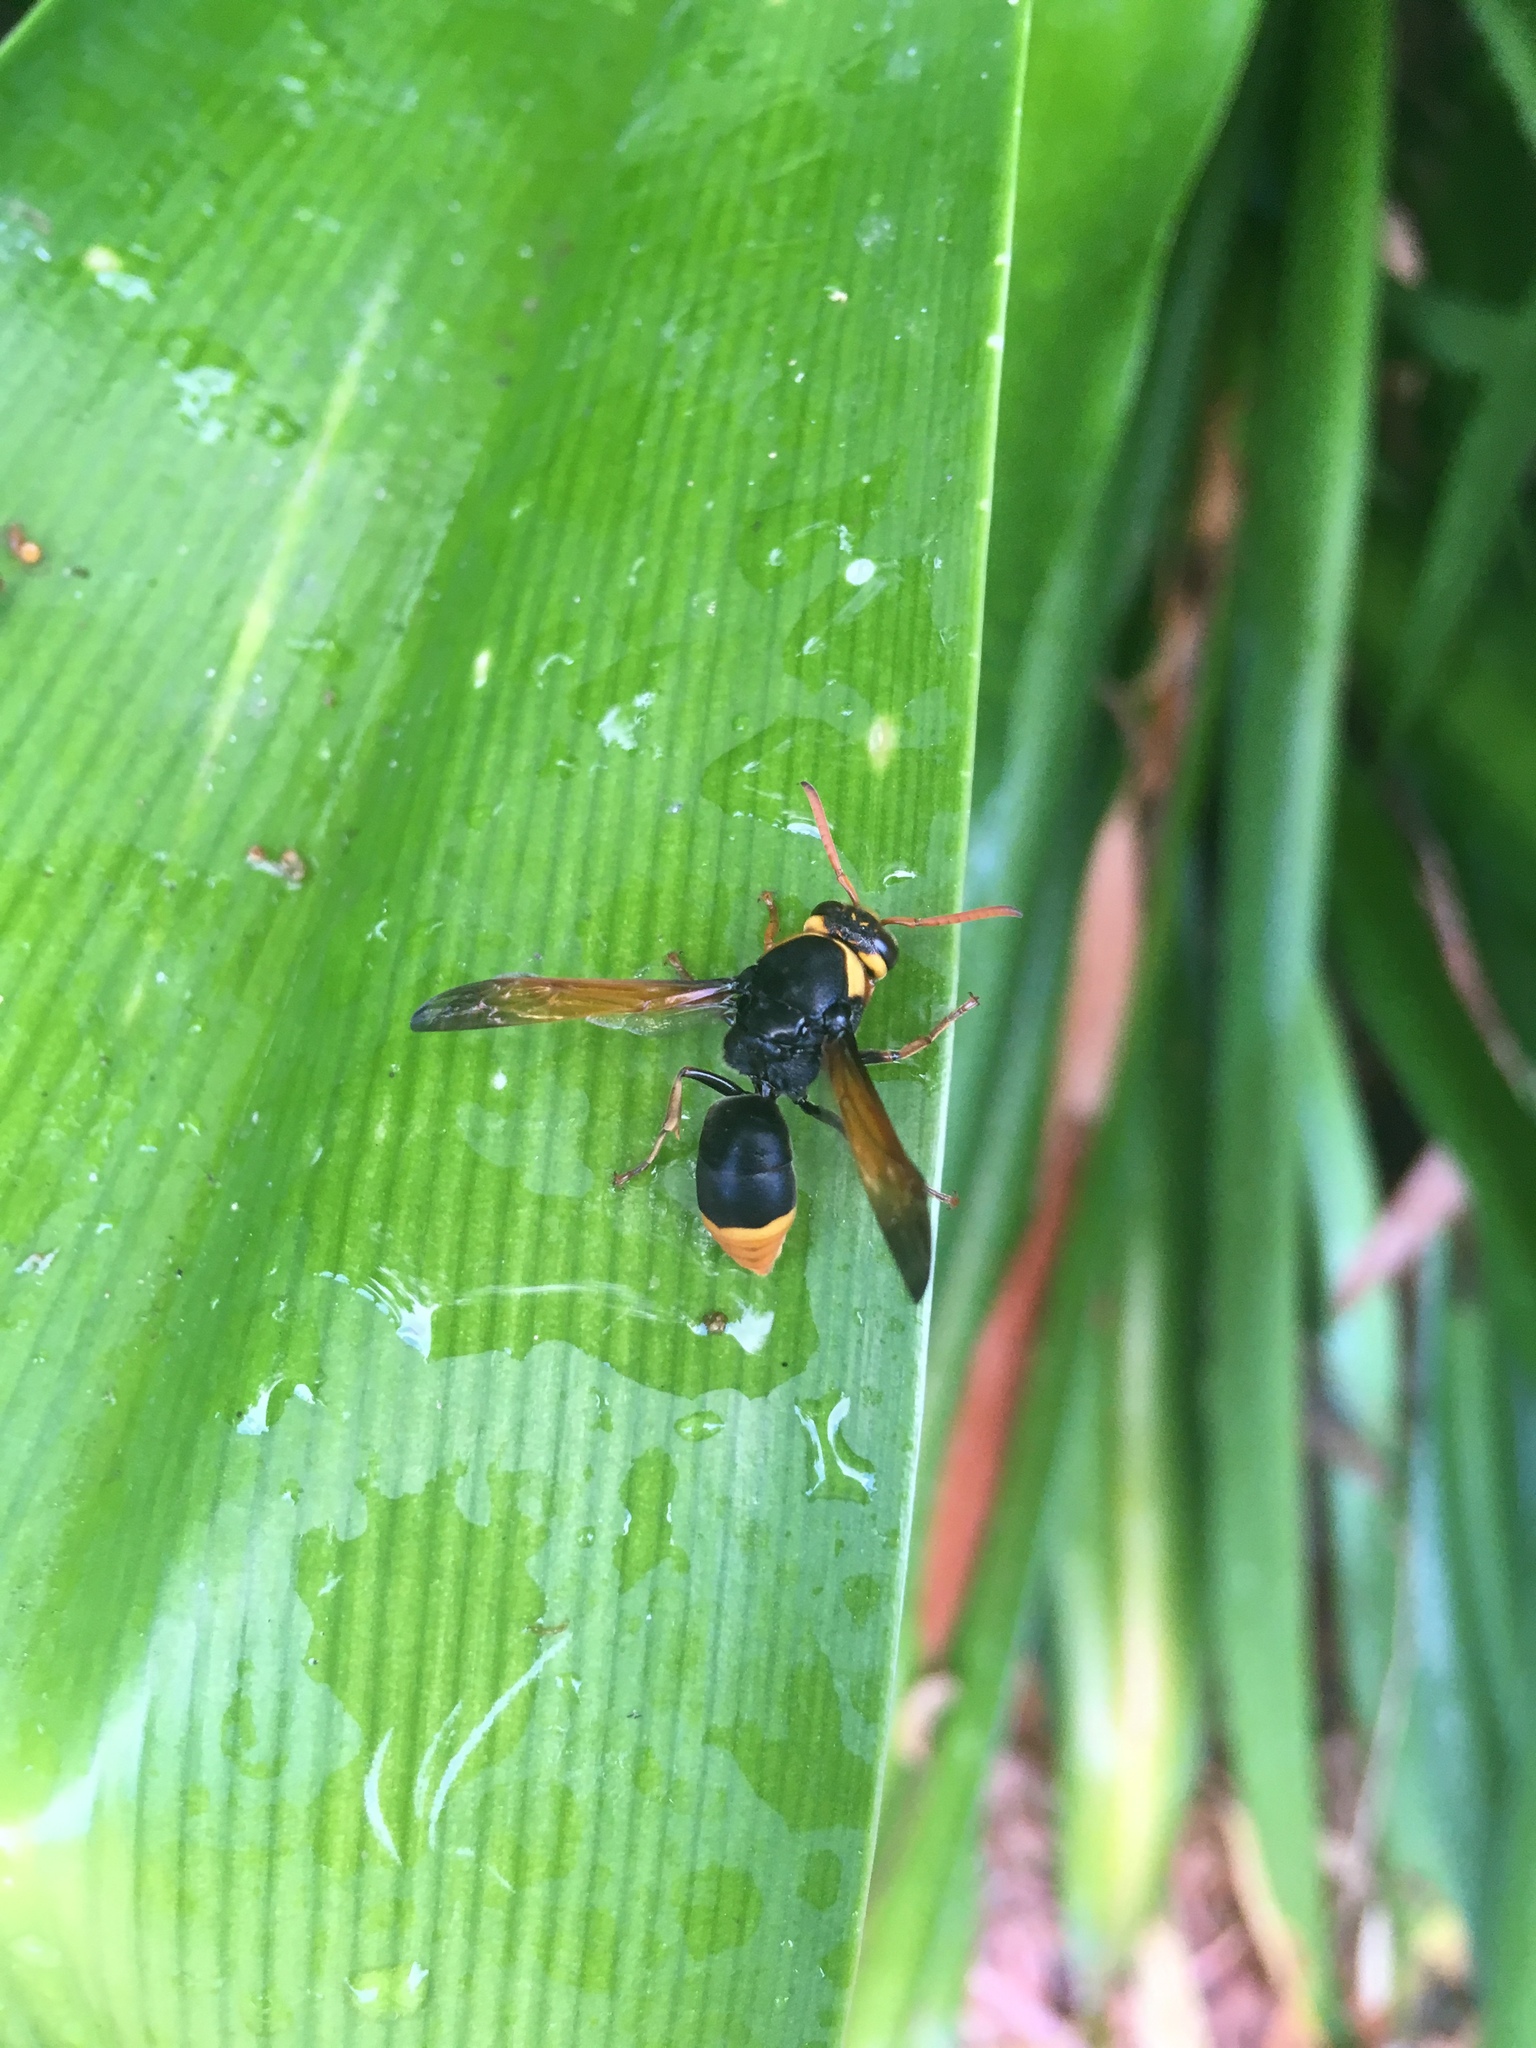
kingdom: Animalia
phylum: Arthropoda
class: Insecta
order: Hymenoptera
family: Eumenidae
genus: Rhynchium
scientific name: Rhynchium superbum
